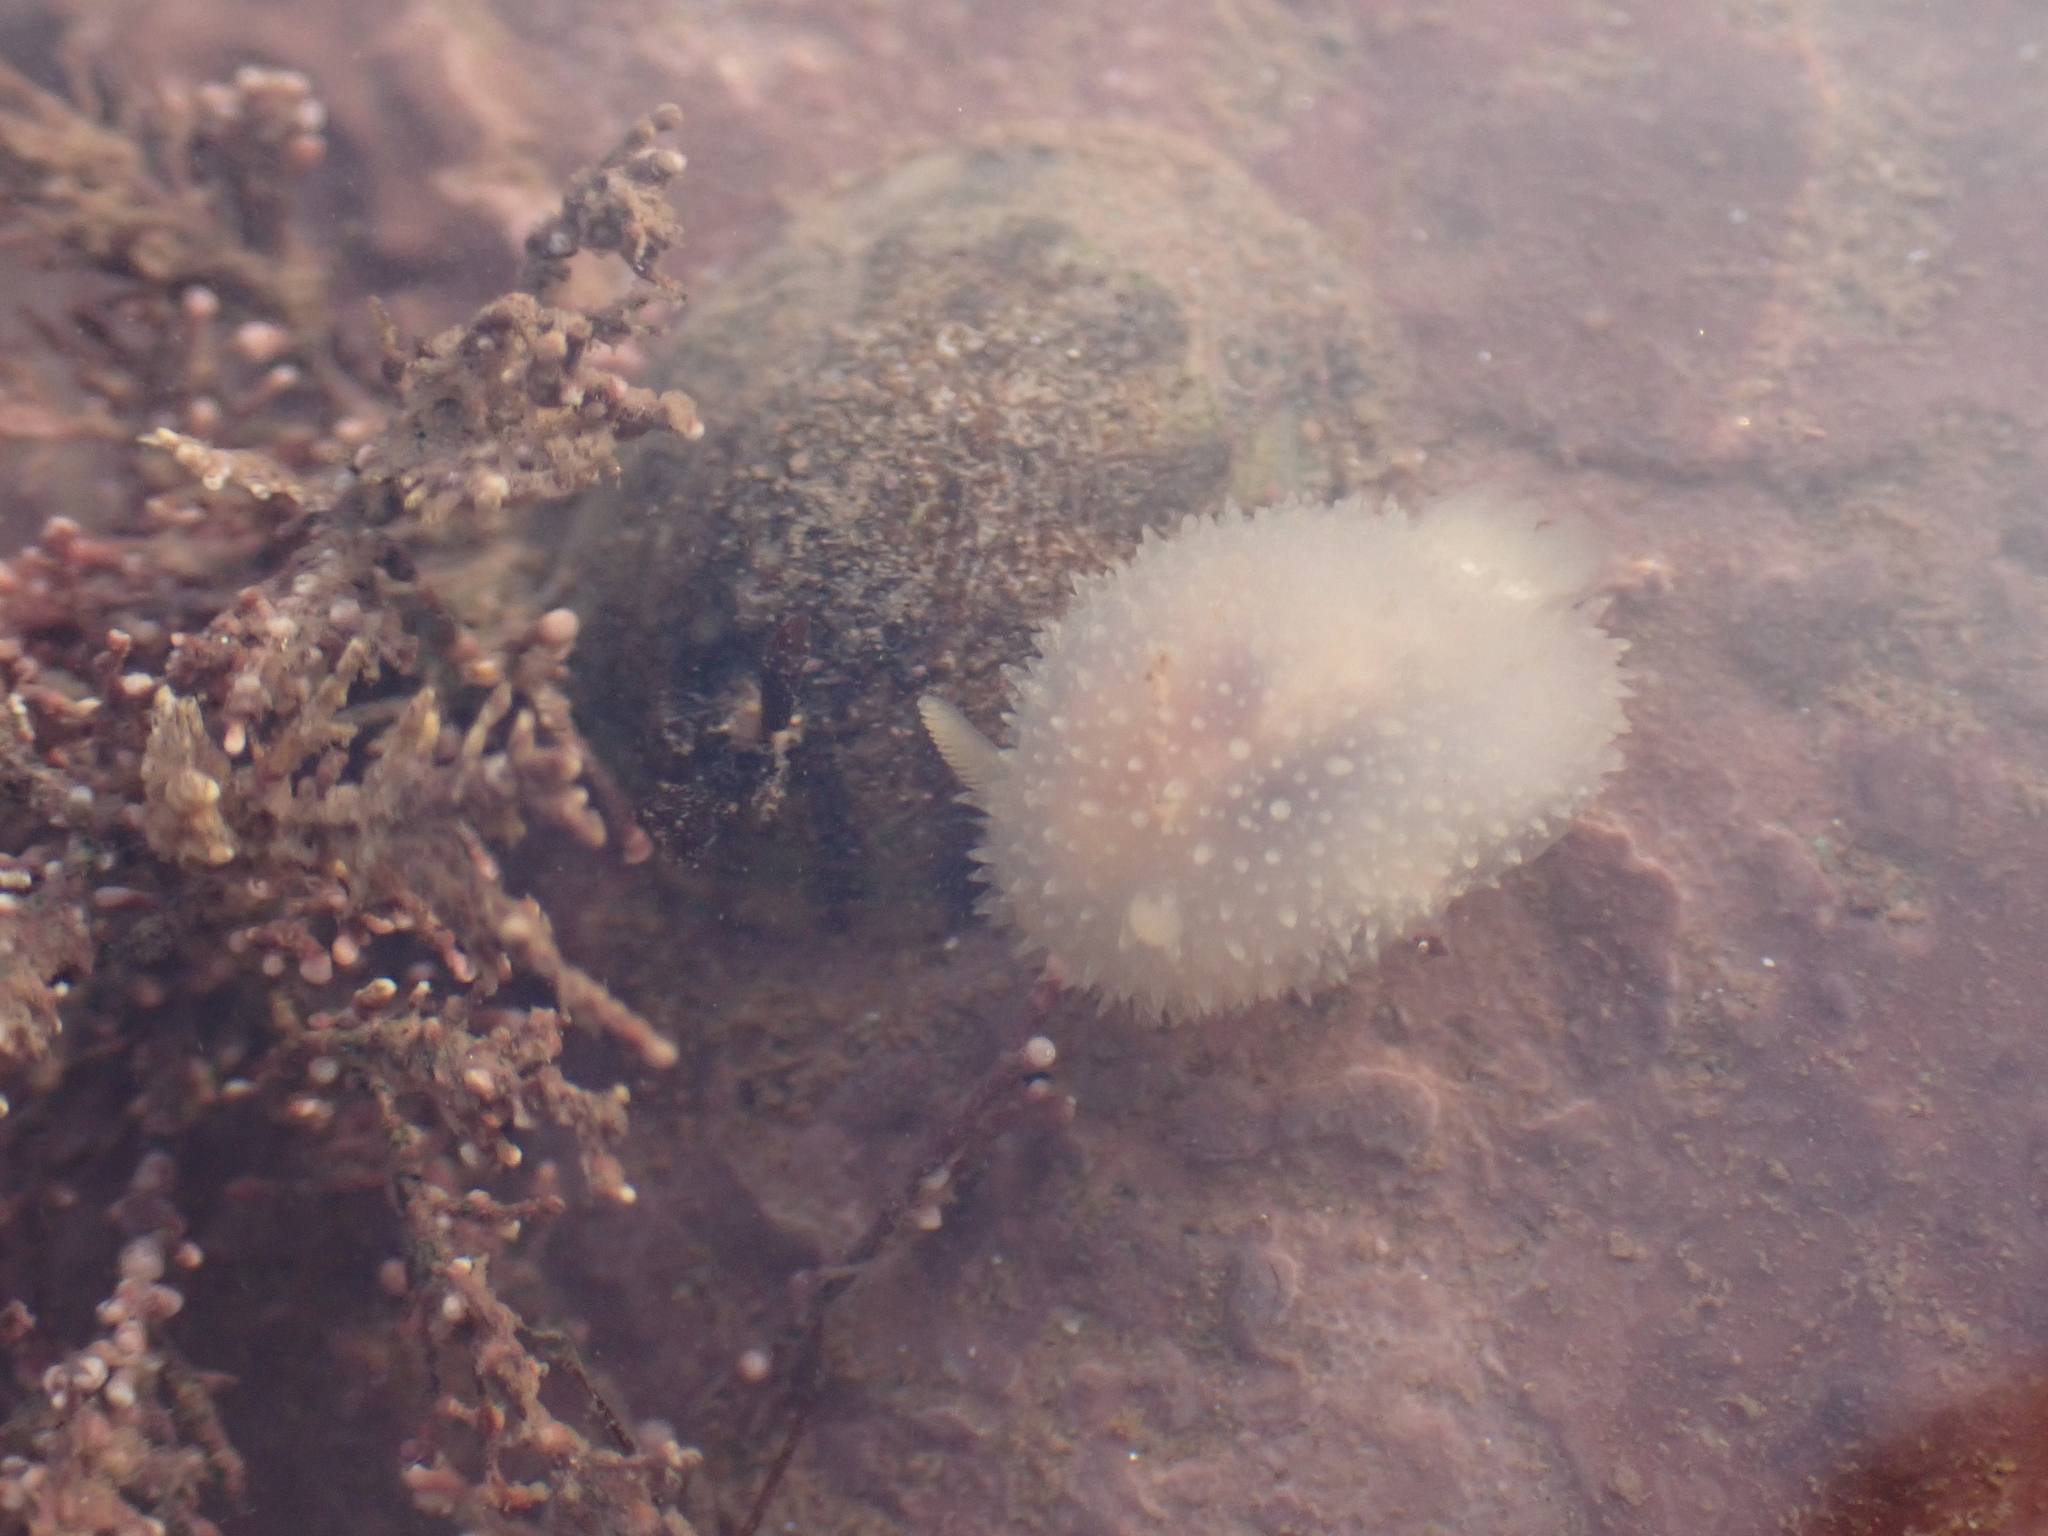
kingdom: Animalia
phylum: Mollusca
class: Gastropoda
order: Nudibranchia
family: Onchidorididae
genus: Acanthodoris
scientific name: Acanthodoris pilosa
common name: Hairy spiny doris
